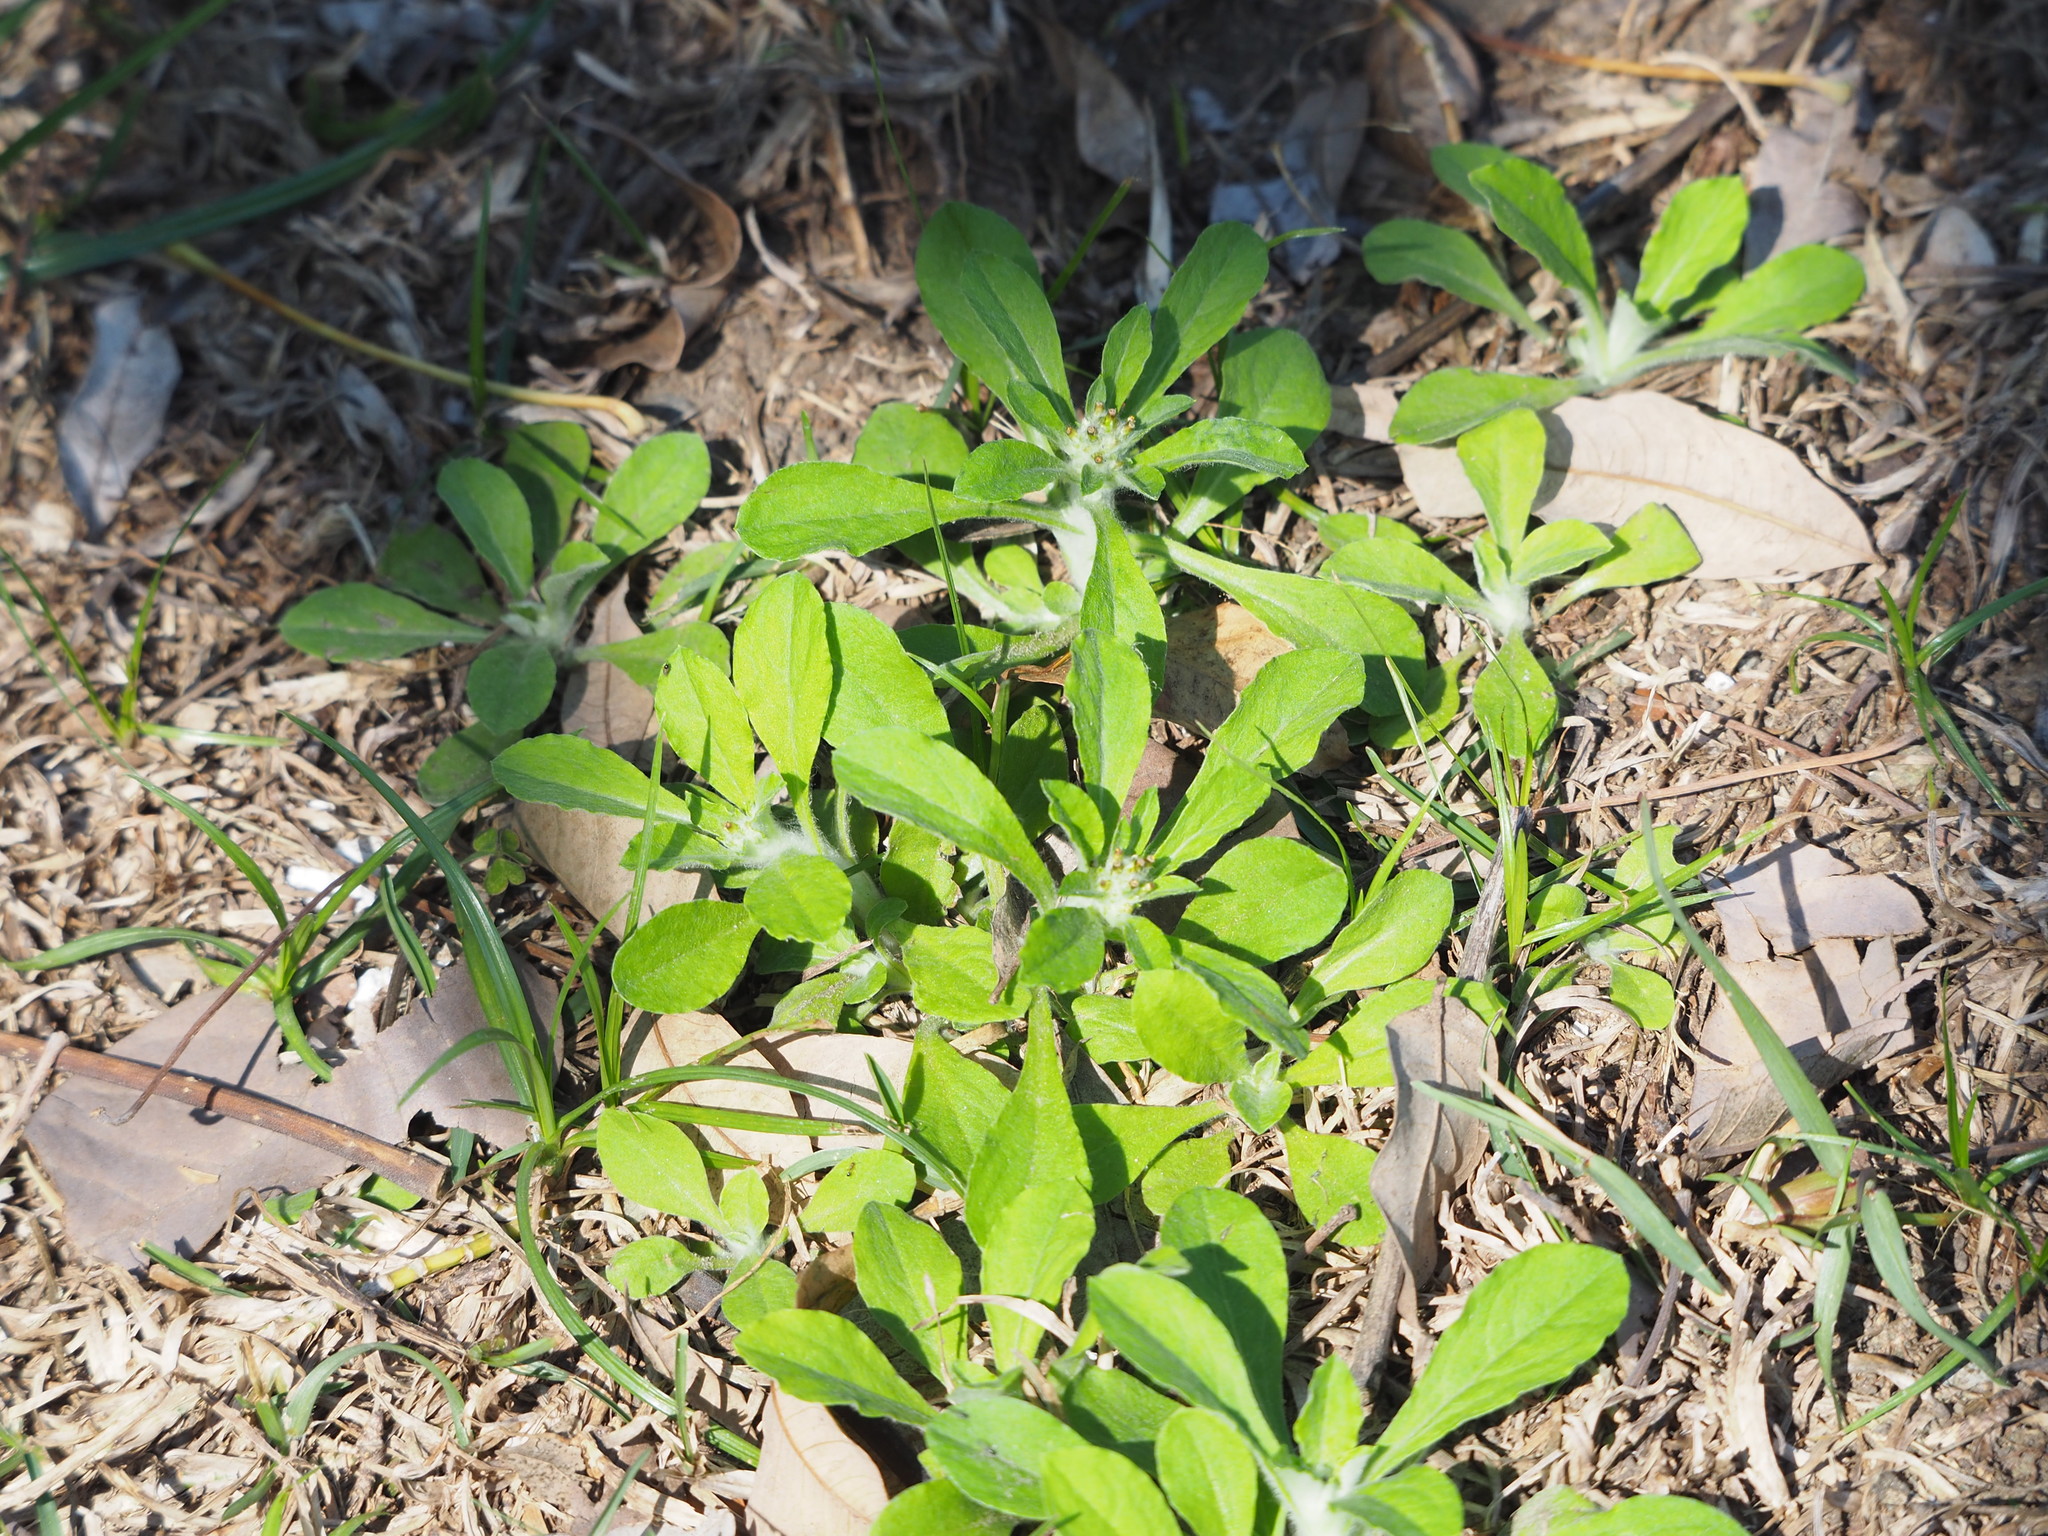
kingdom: Plantae
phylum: Tracheophyta
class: Magnoliopsida
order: Asterales
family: Asteraceae
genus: Gamochaeta
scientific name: Gamochaeta purpurea
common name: Purple cudweed
